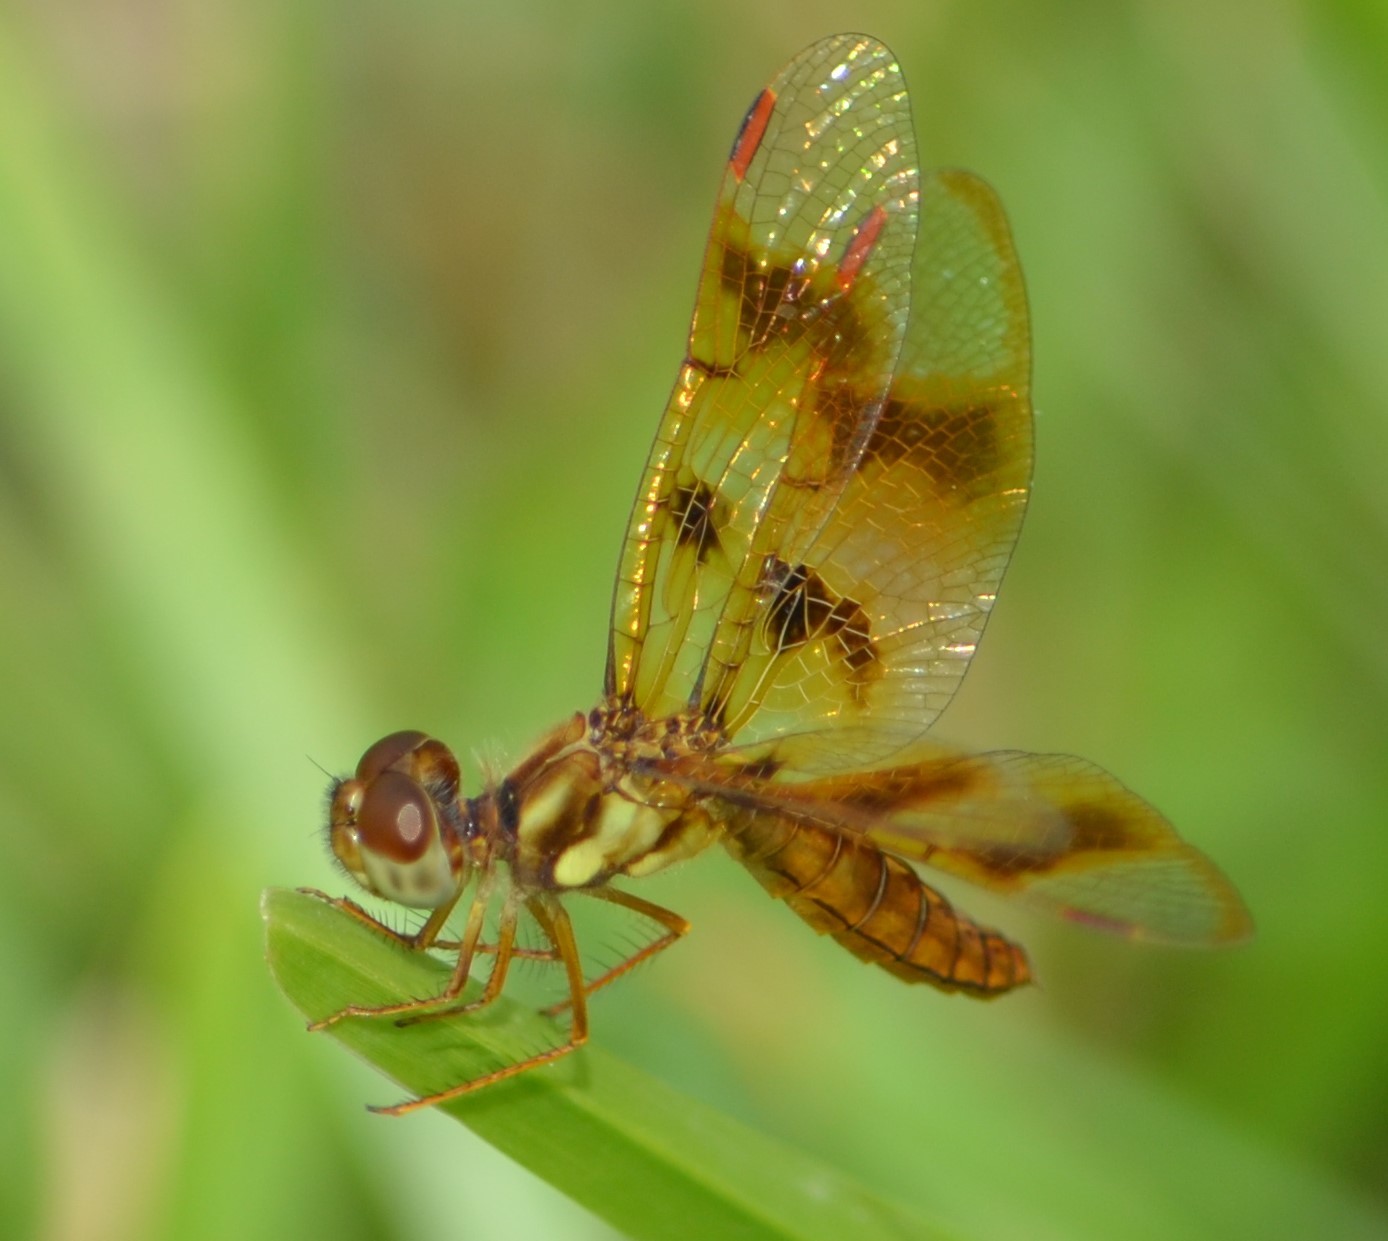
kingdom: Animalia
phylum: Arthropoda
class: Insecta
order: Odonata
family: Libellulidae
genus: Perithemis
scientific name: Perithemis tenera
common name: Eastern amberwing
